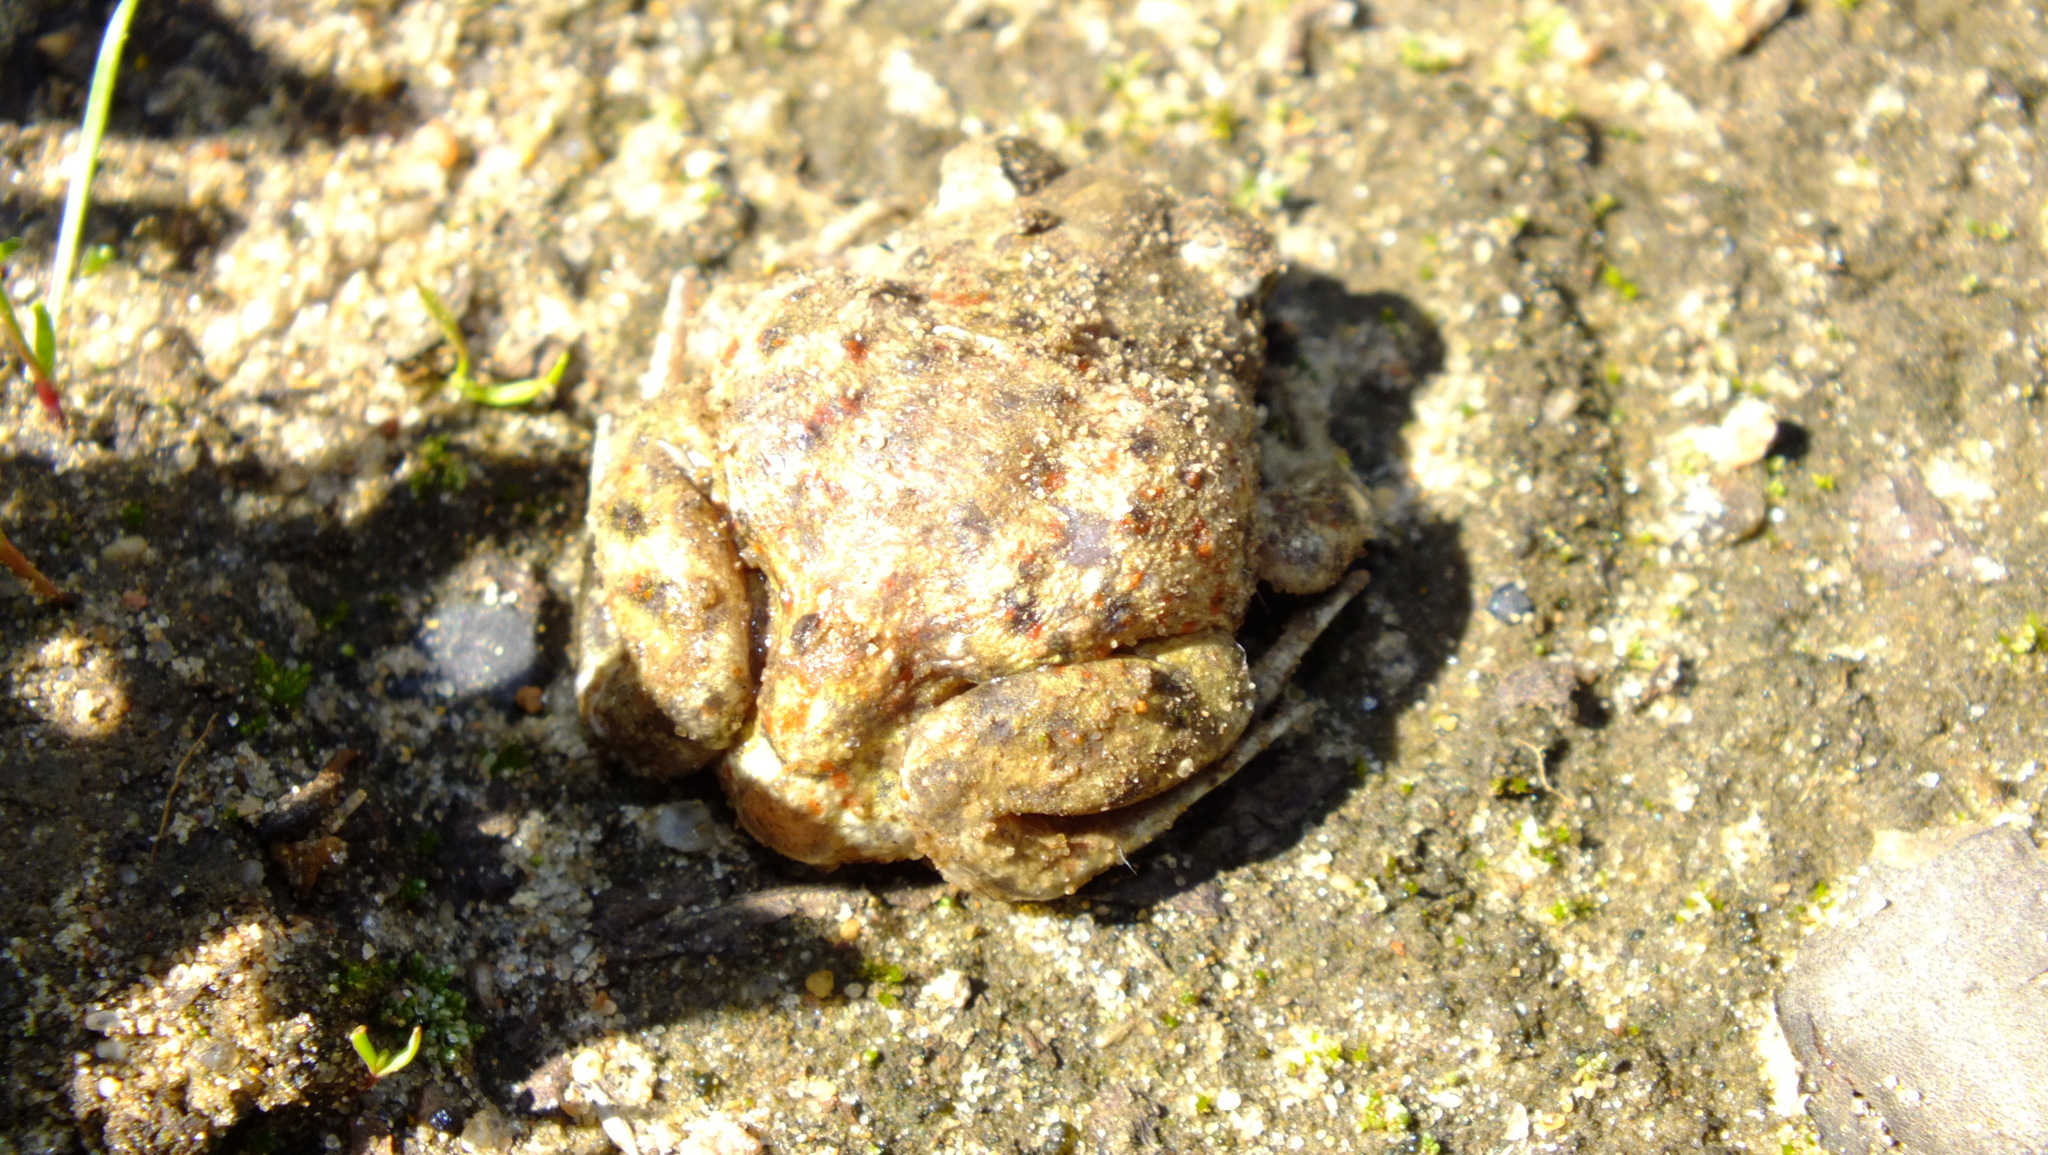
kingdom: Animalia
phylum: Chordata
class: Amphibia
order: Anura
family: Pelobatidae
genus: Pelobates
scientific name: Pelobates fuscus
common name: Common eurasian spadefoot toad
